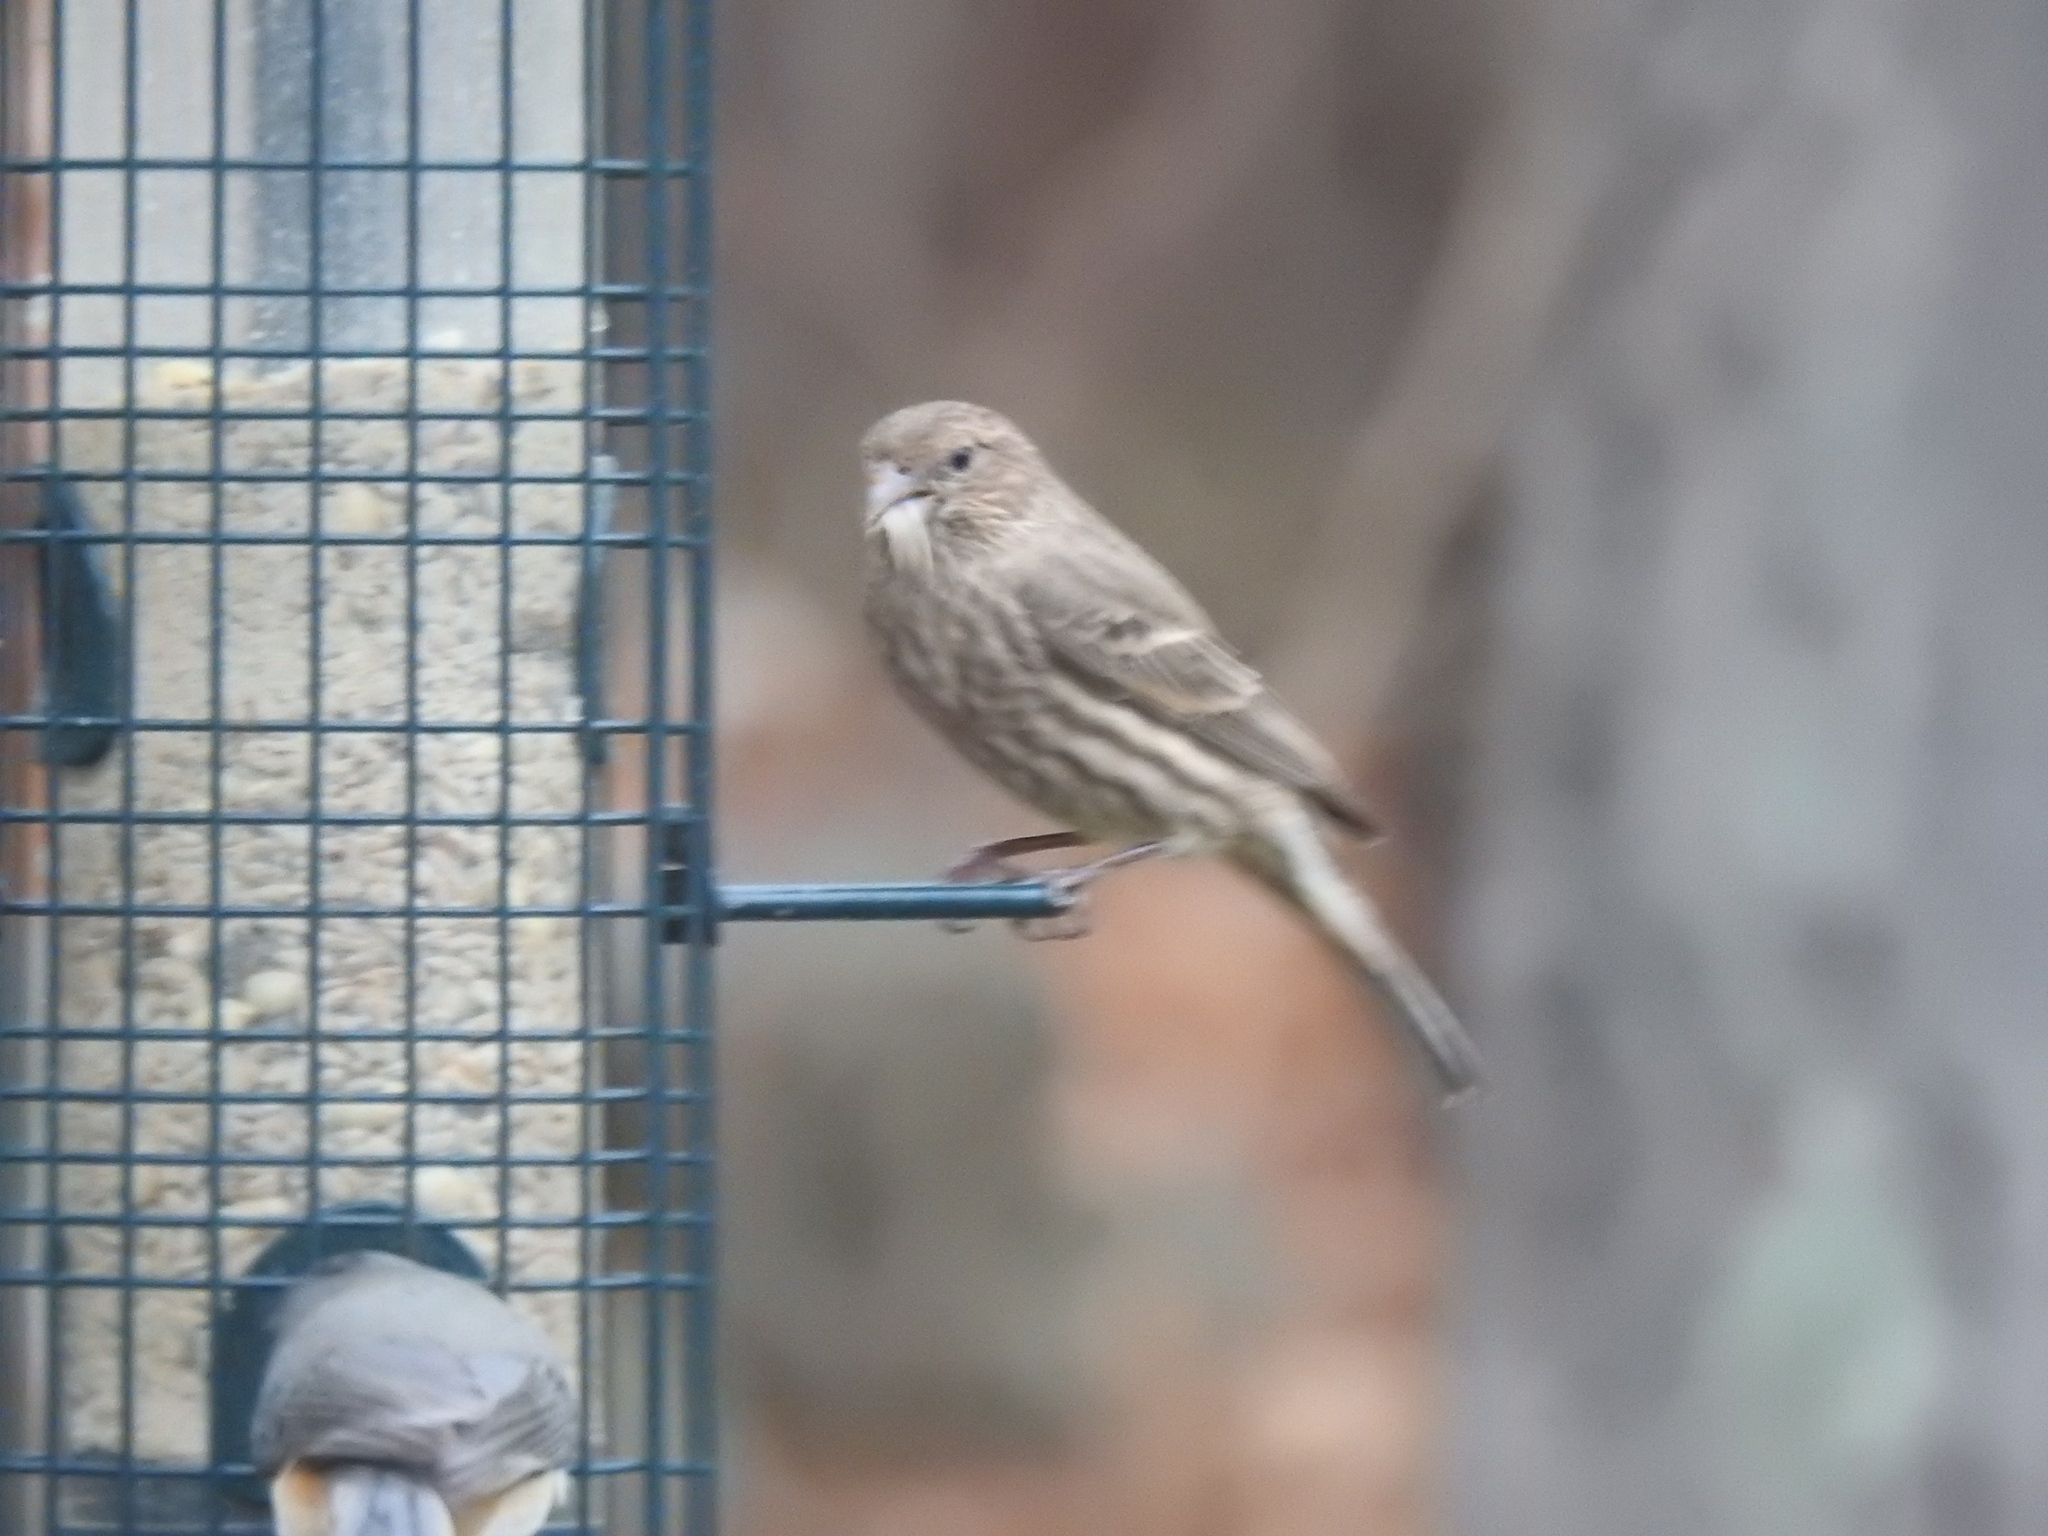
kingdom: Animalia
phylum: Chordata
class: Aves
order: Passeriformes
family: Fringillidae
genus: Haemorhous
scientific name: Haemorhous mexicanus
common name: House finch
